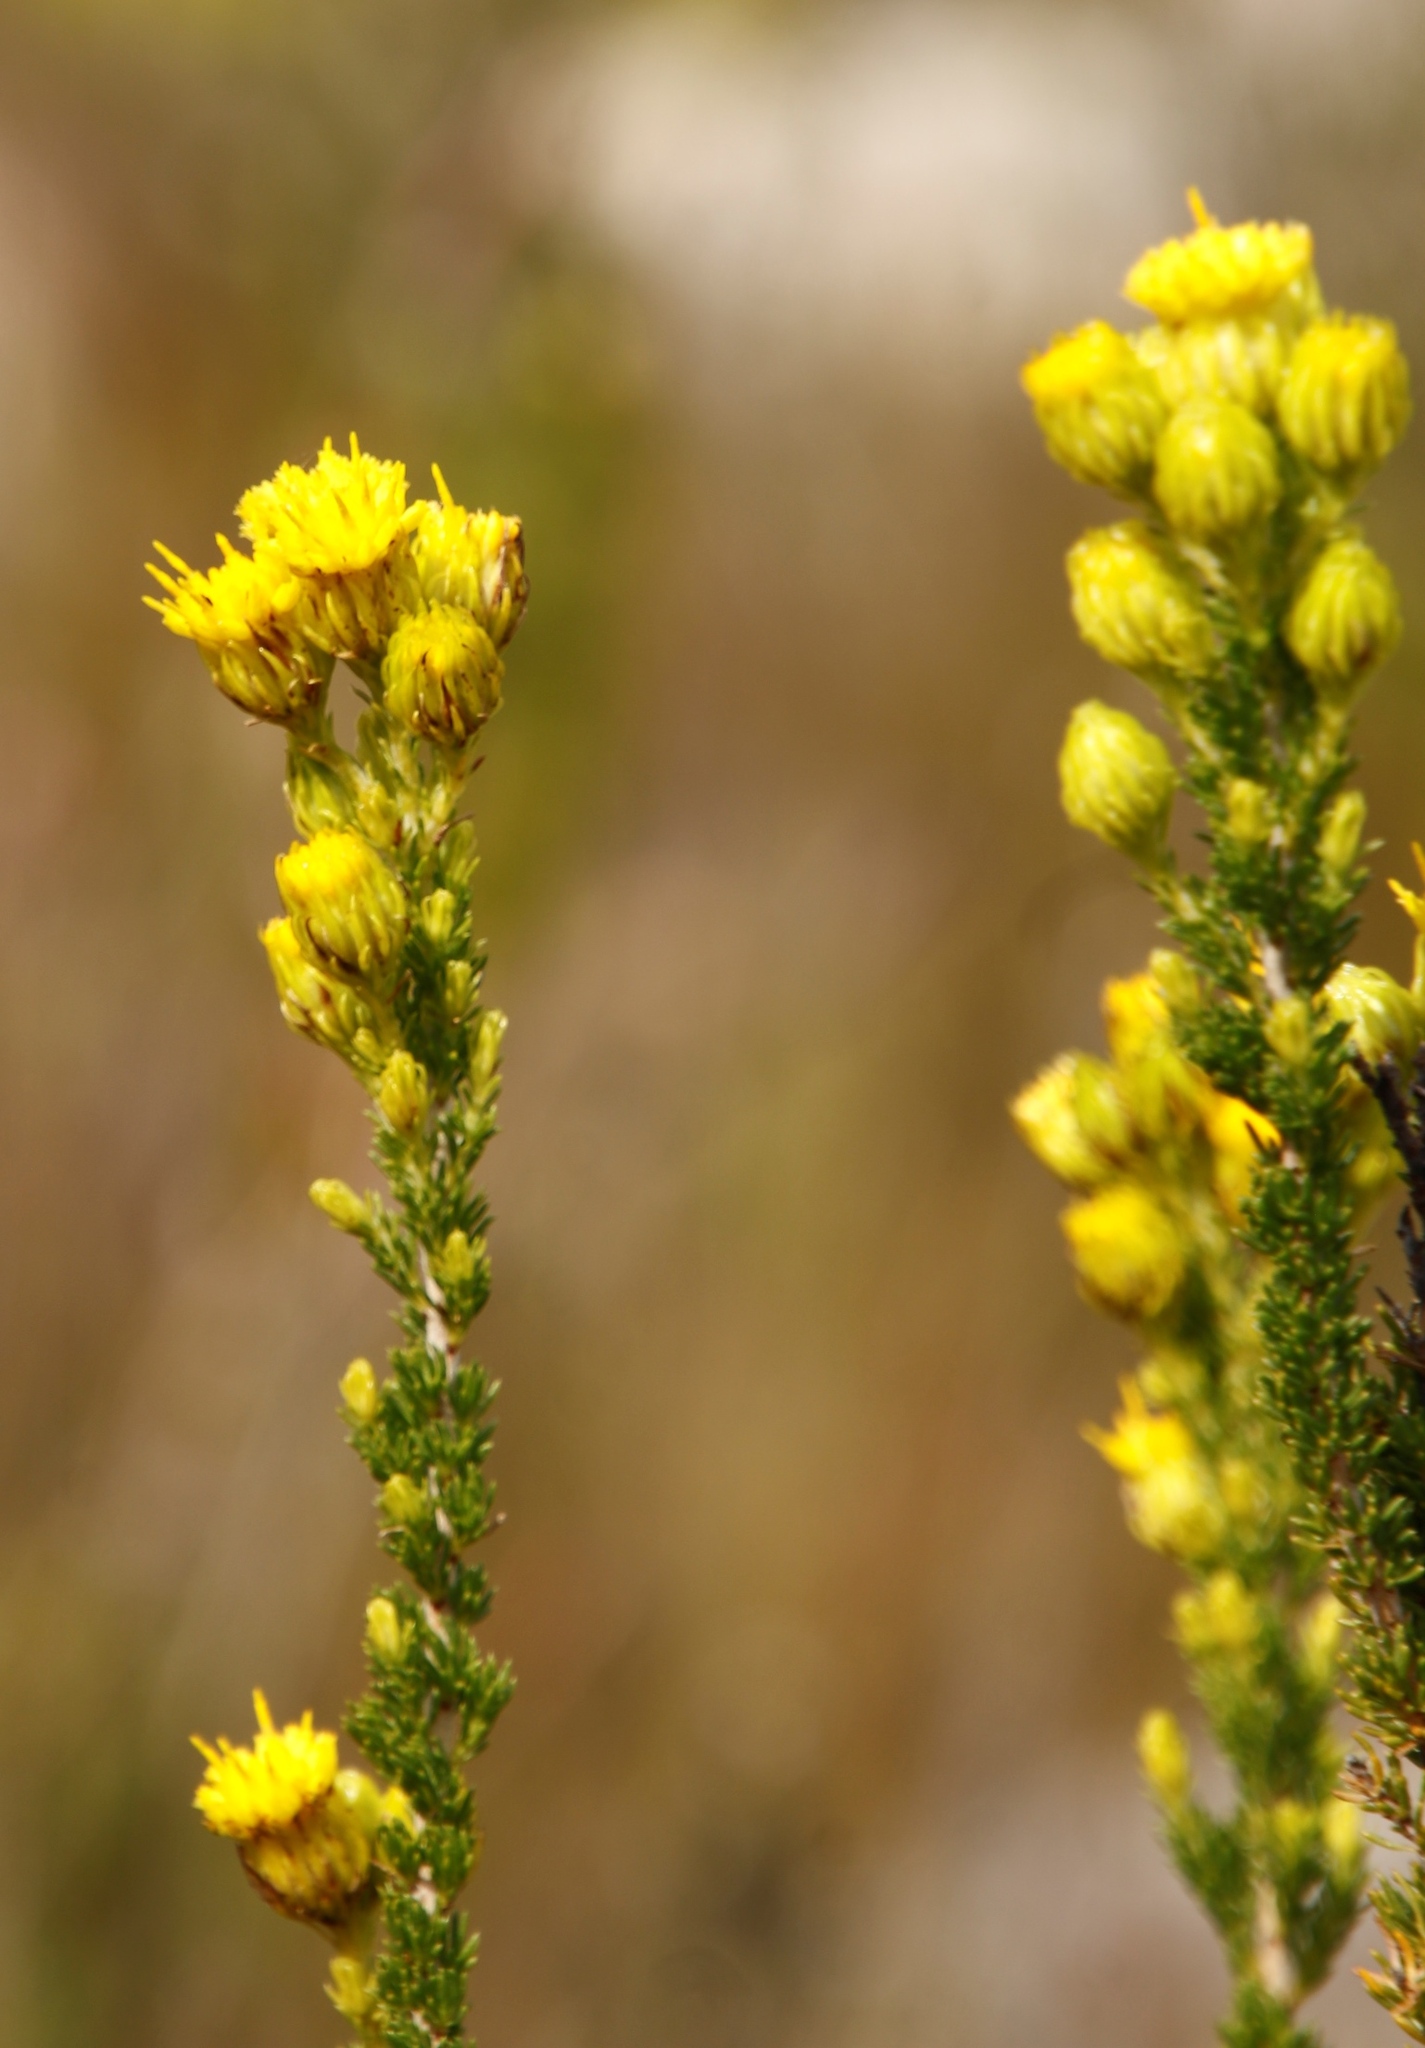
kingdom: Plantae
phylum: Tracheophyta
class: Magnoliopsida
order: Asterales
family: Asteraceae
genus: Pteronia
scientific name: Pteronia camphorata
